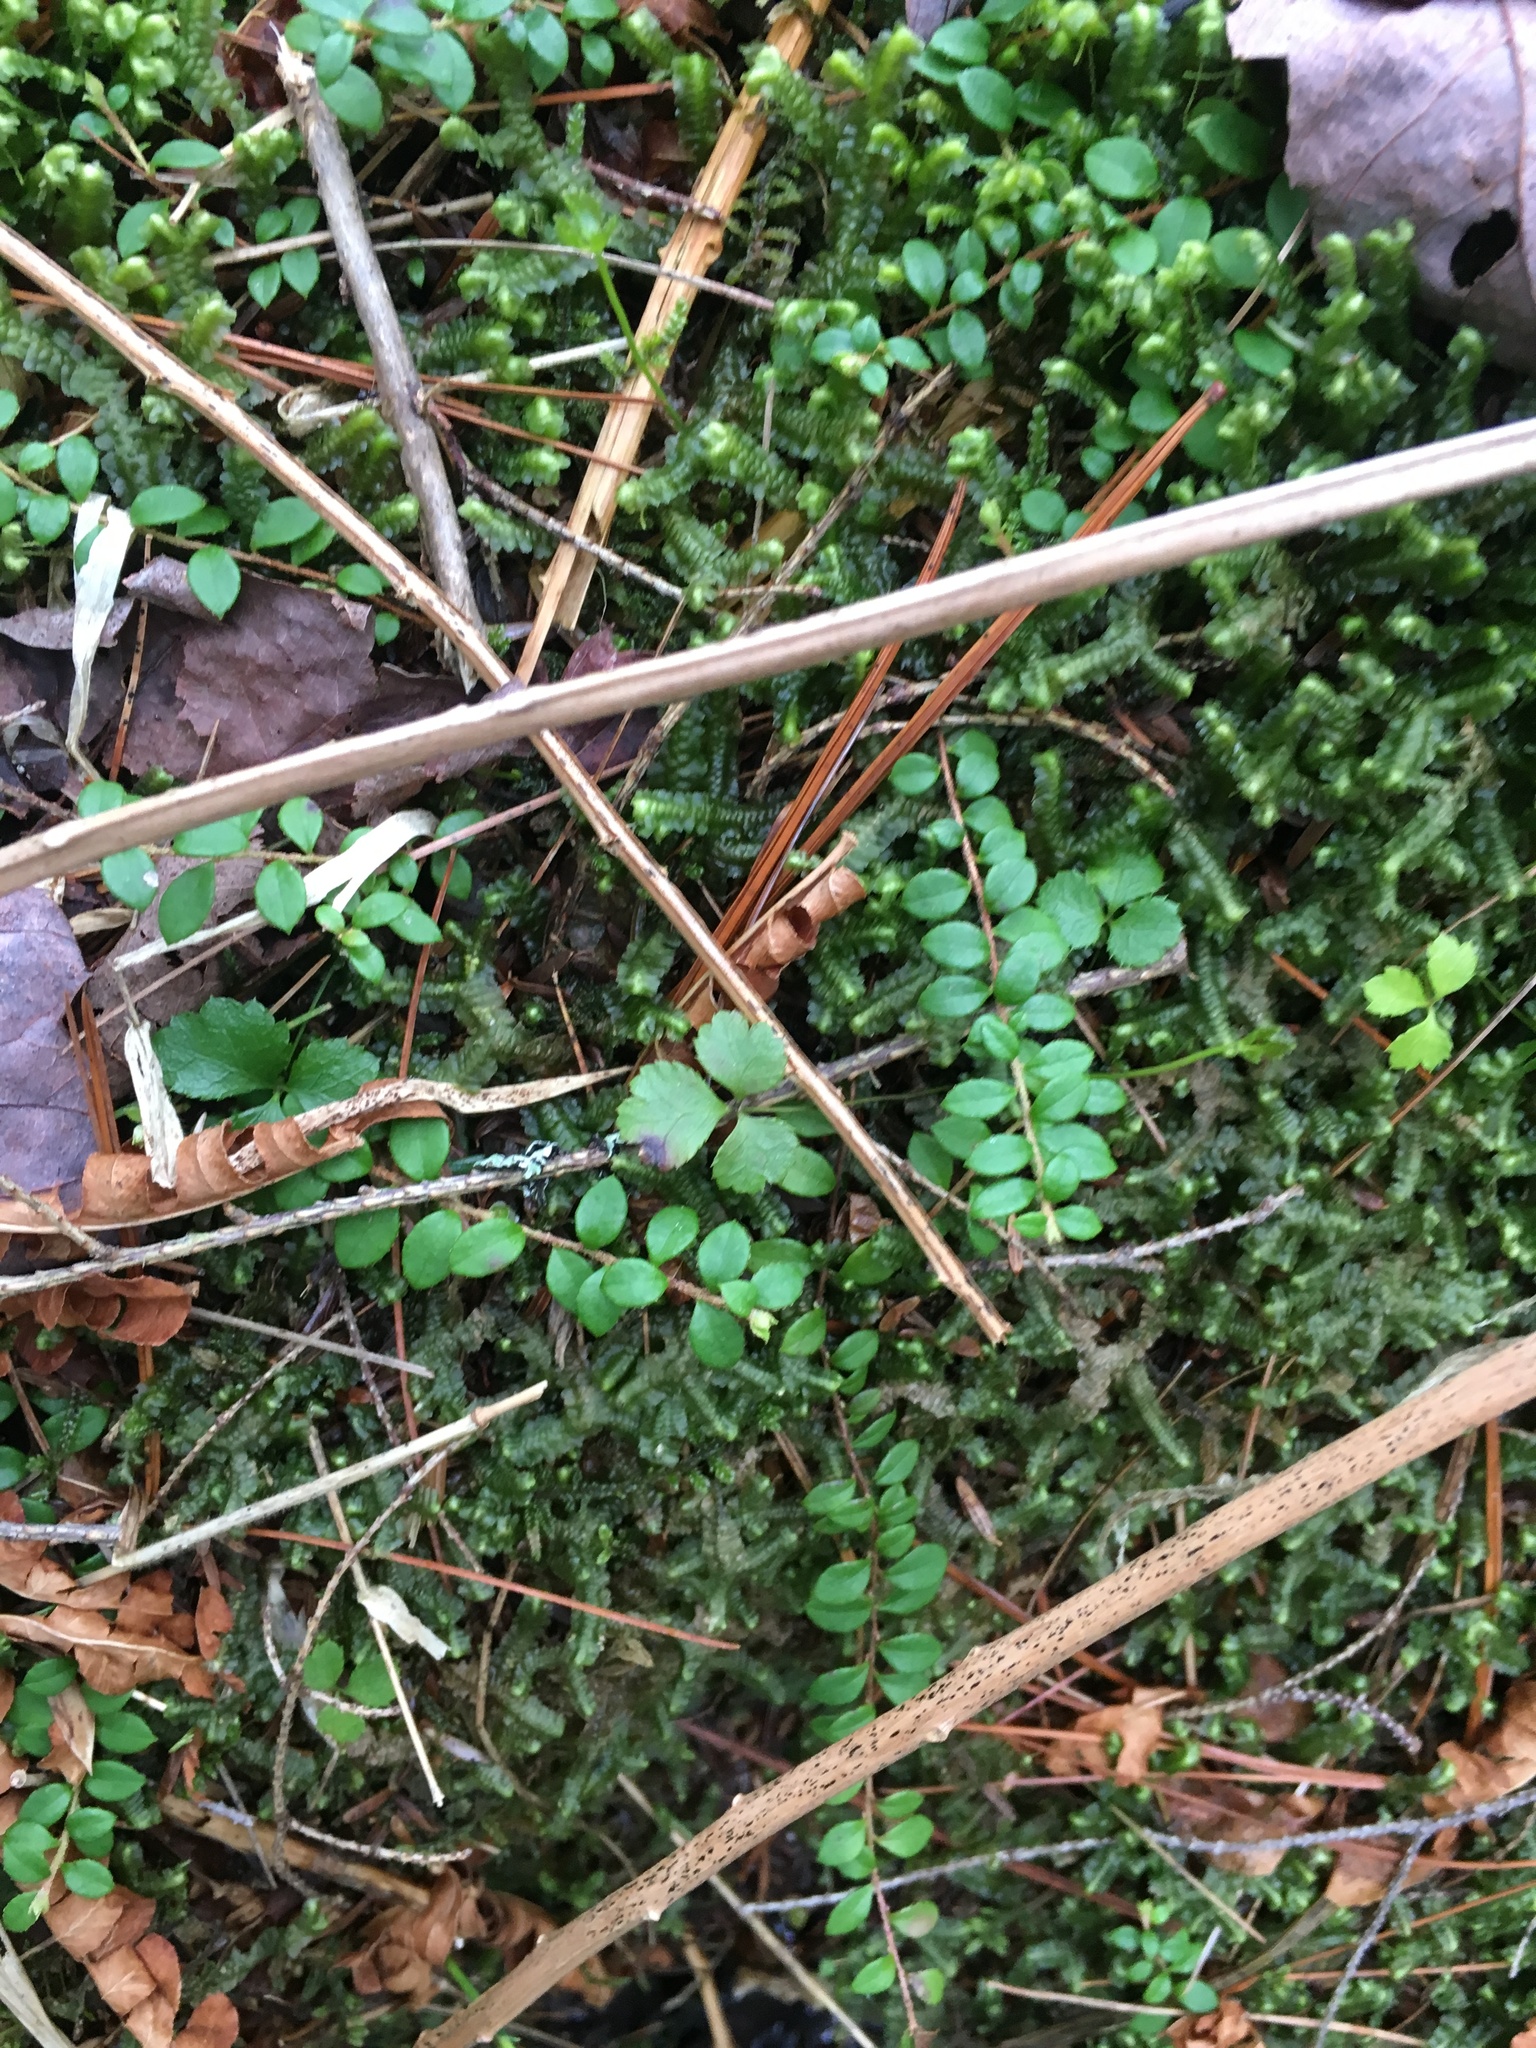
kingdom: Plantae
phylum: Tracheophyta
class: Magnoliopsida
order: Ericales
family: Ericaceae
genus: Gaultheria
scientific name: Gaultheria hispidula
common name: Cancer wintergreen
